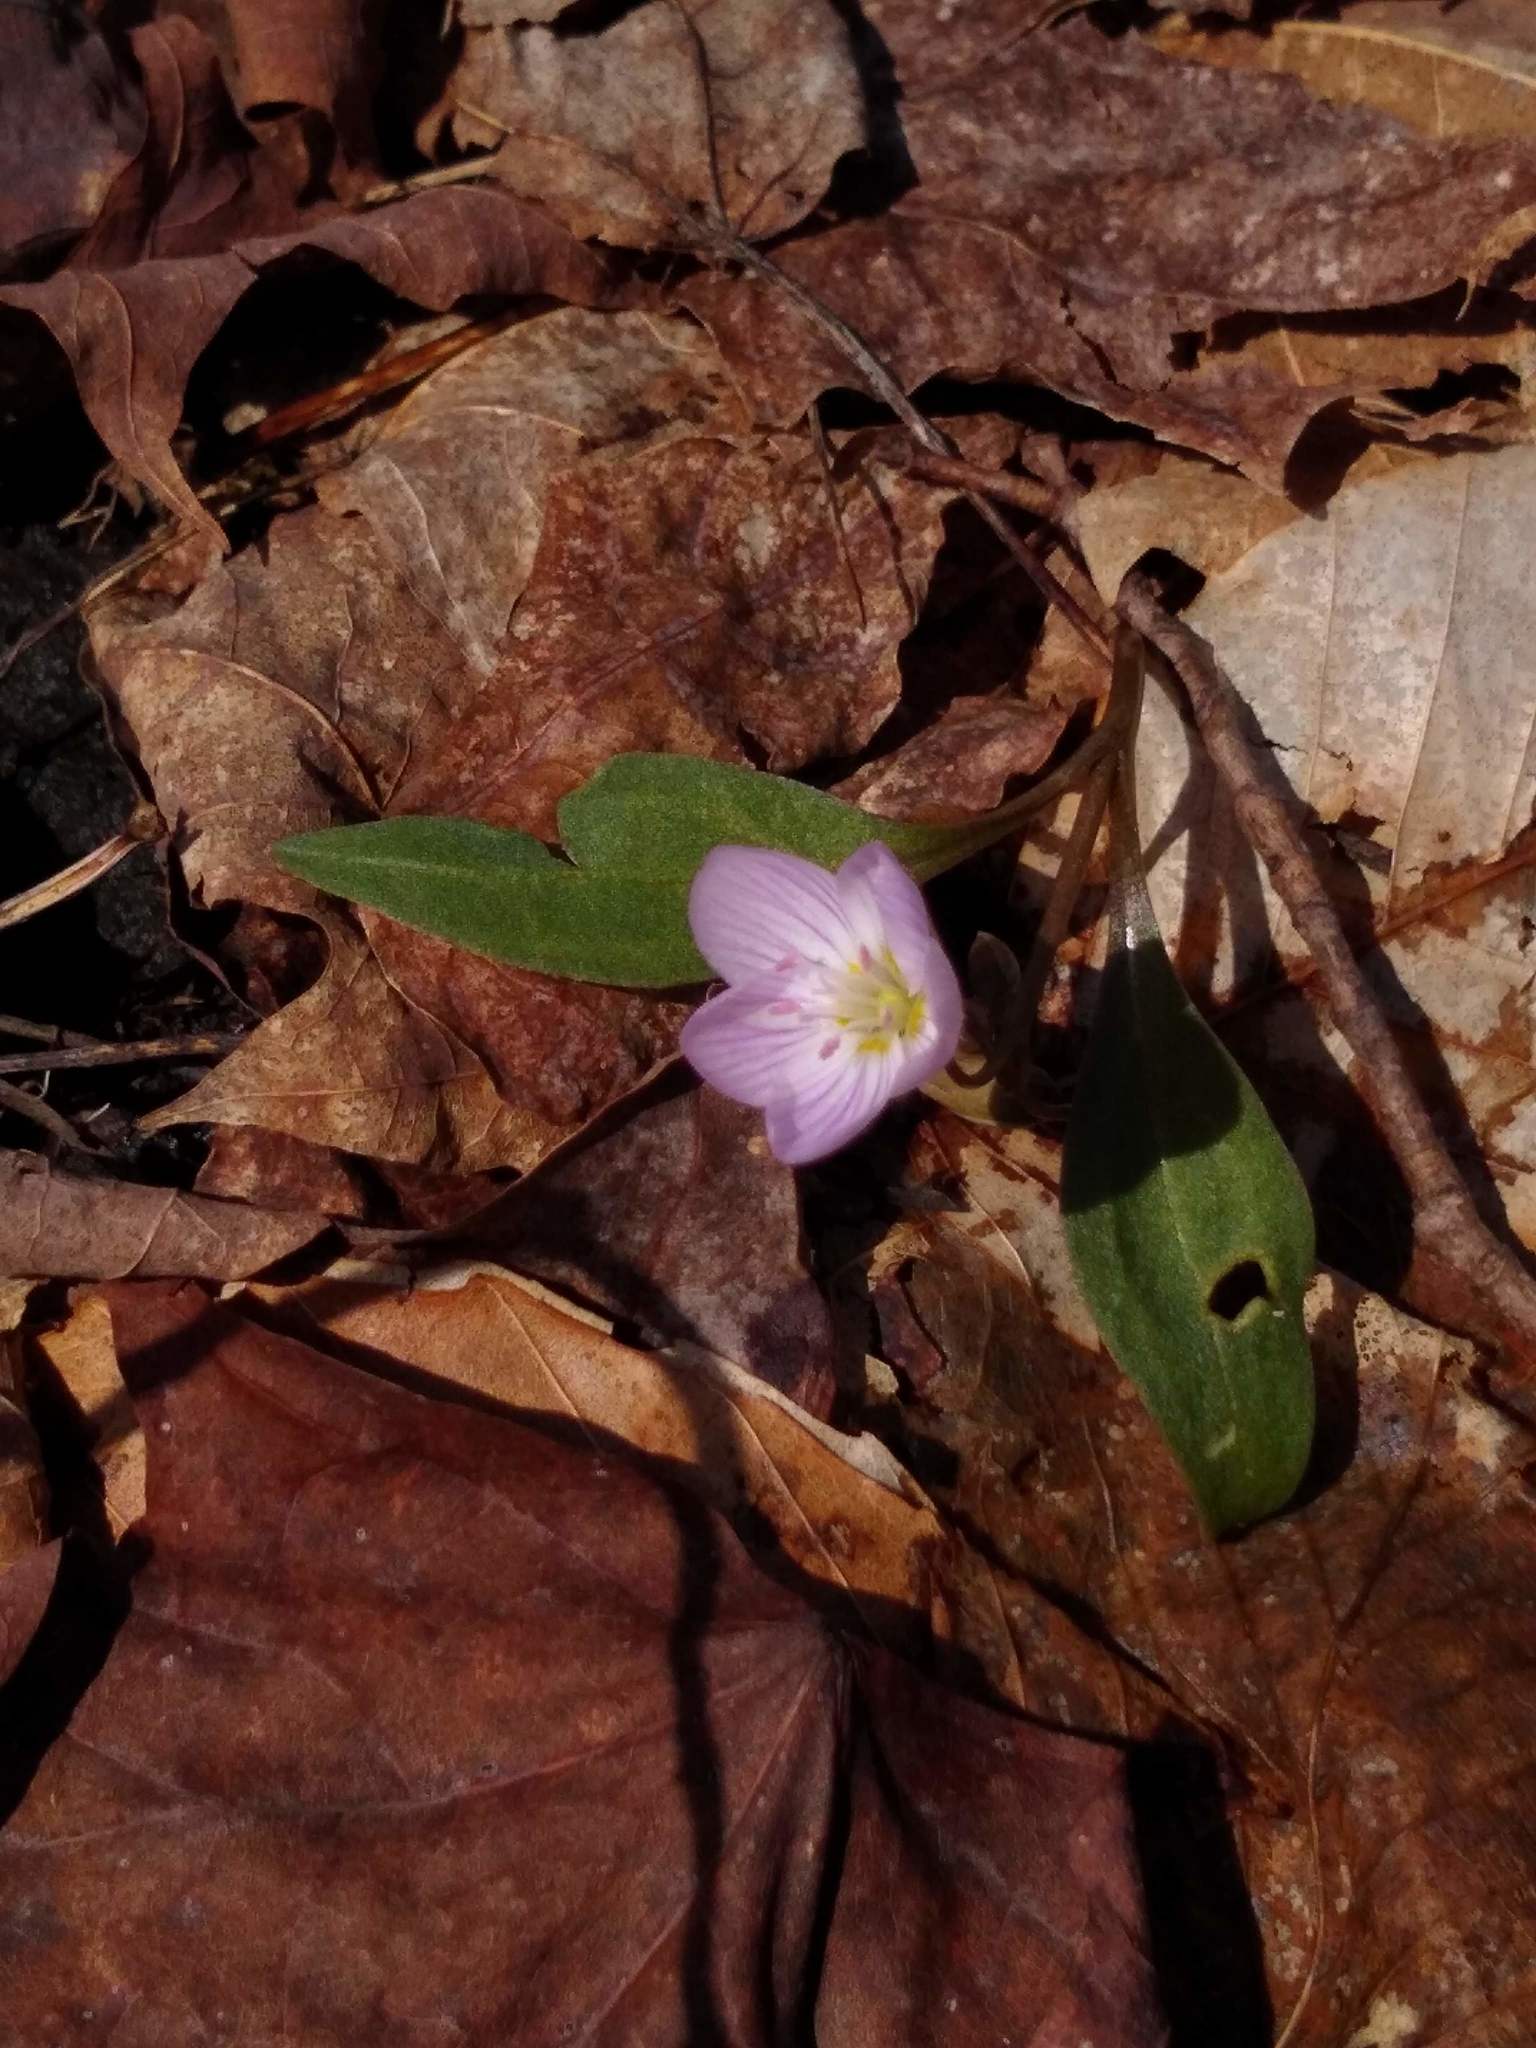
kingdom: Plantae
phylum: Tracheophyta
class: Magnoliopsida
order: Caryophyllales
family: Montiaceae
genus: Claytonia
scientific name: Claytonia caroliniana
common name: Carolina spring beauty
